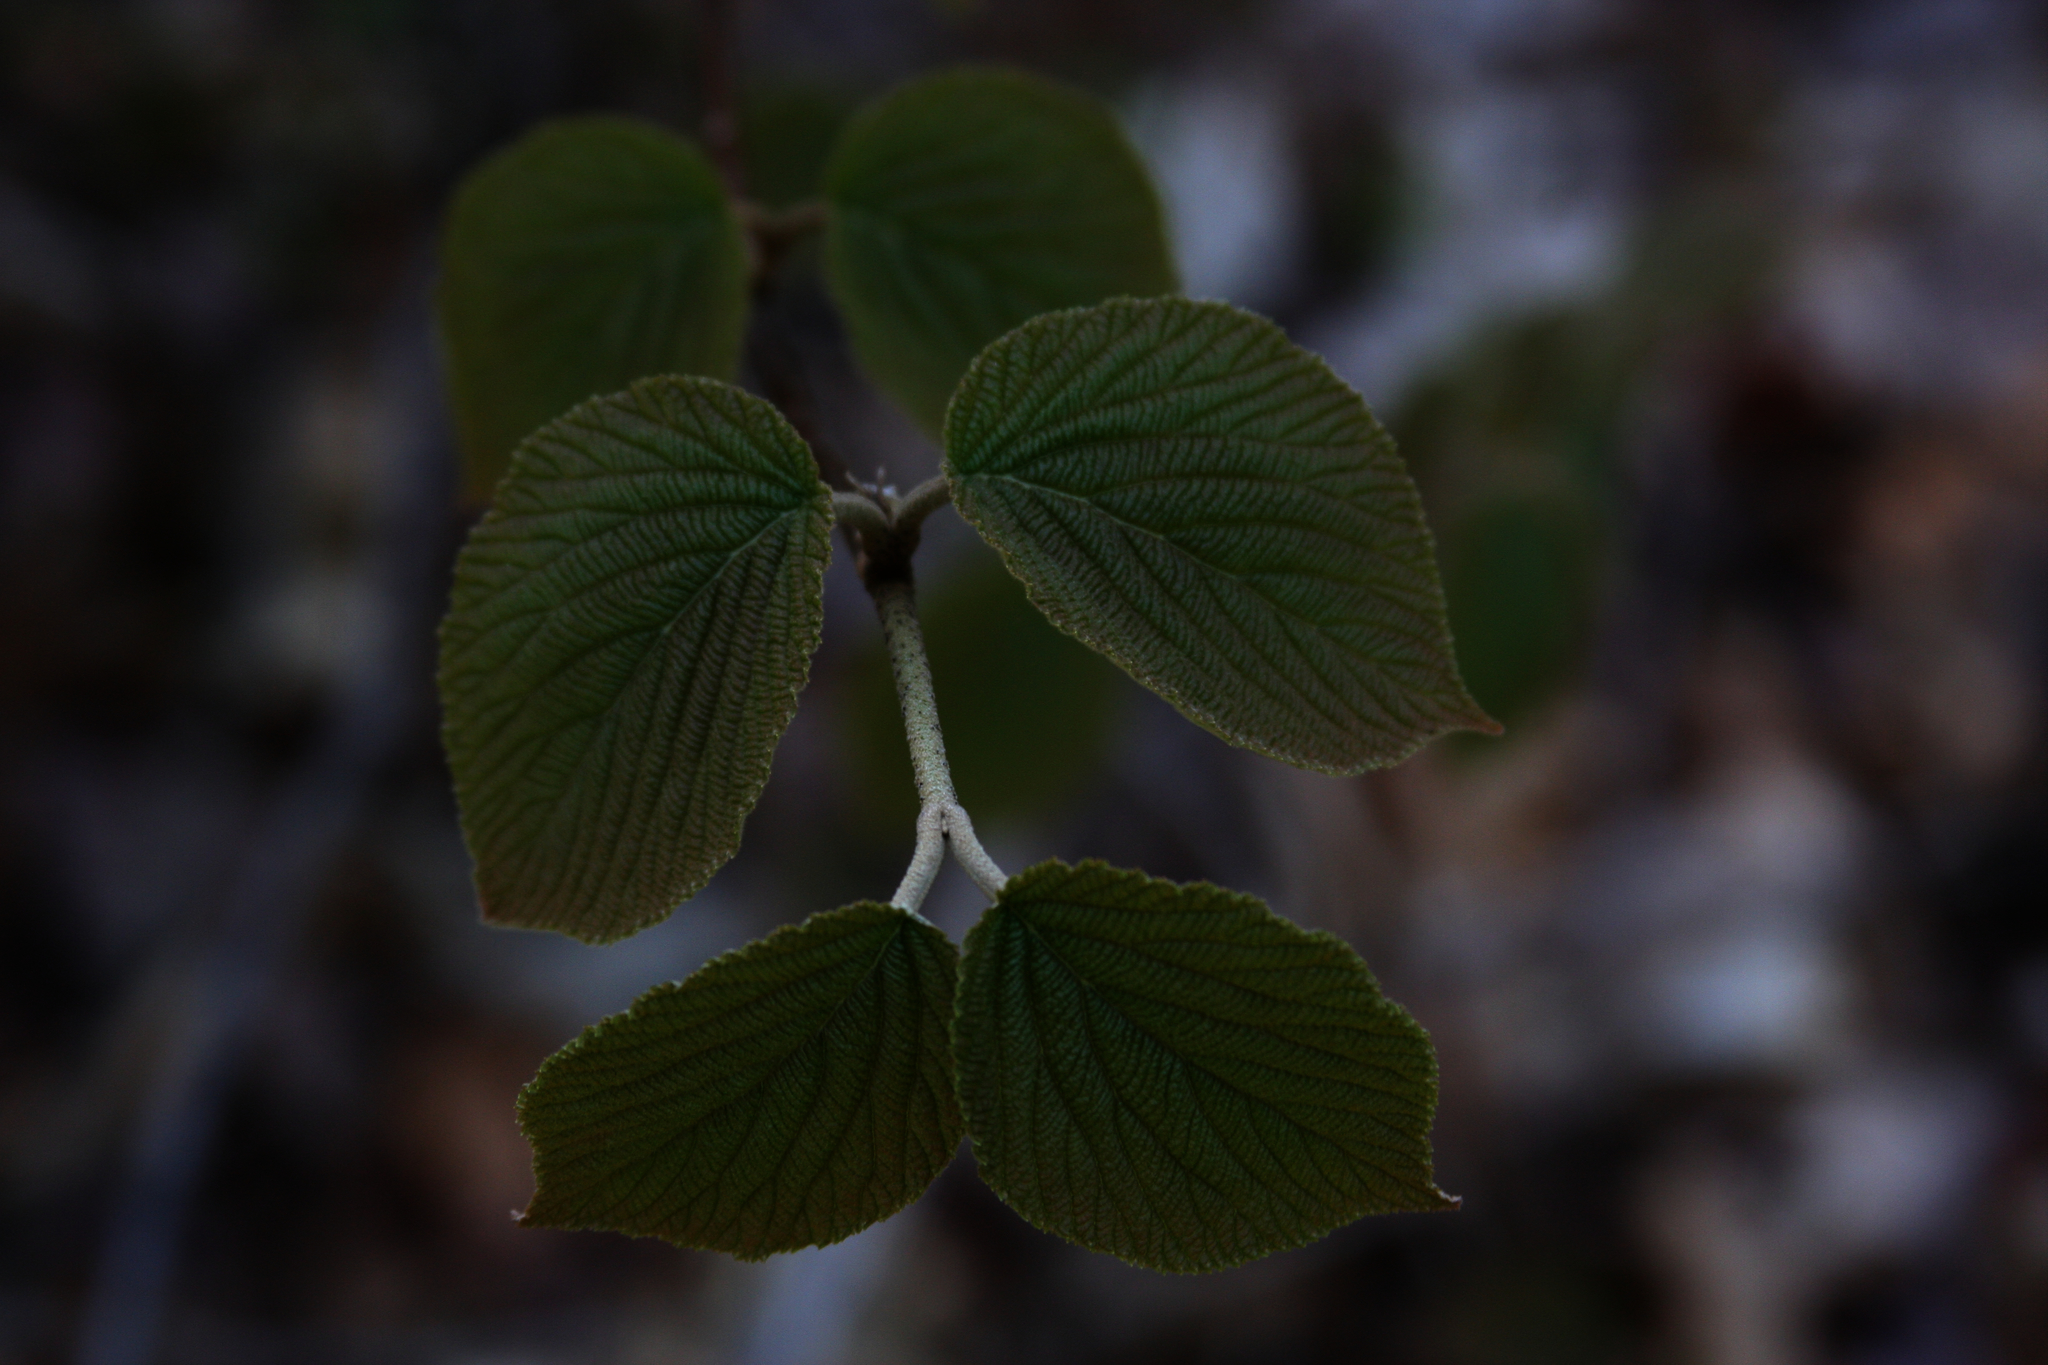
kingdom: Plantae
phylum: Tracheophyta
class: Magnoliopsida
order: Dipsacales
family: Viburnaceae
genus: Viburnum
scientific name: Viburnum lantanoides
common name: Hobblebush
